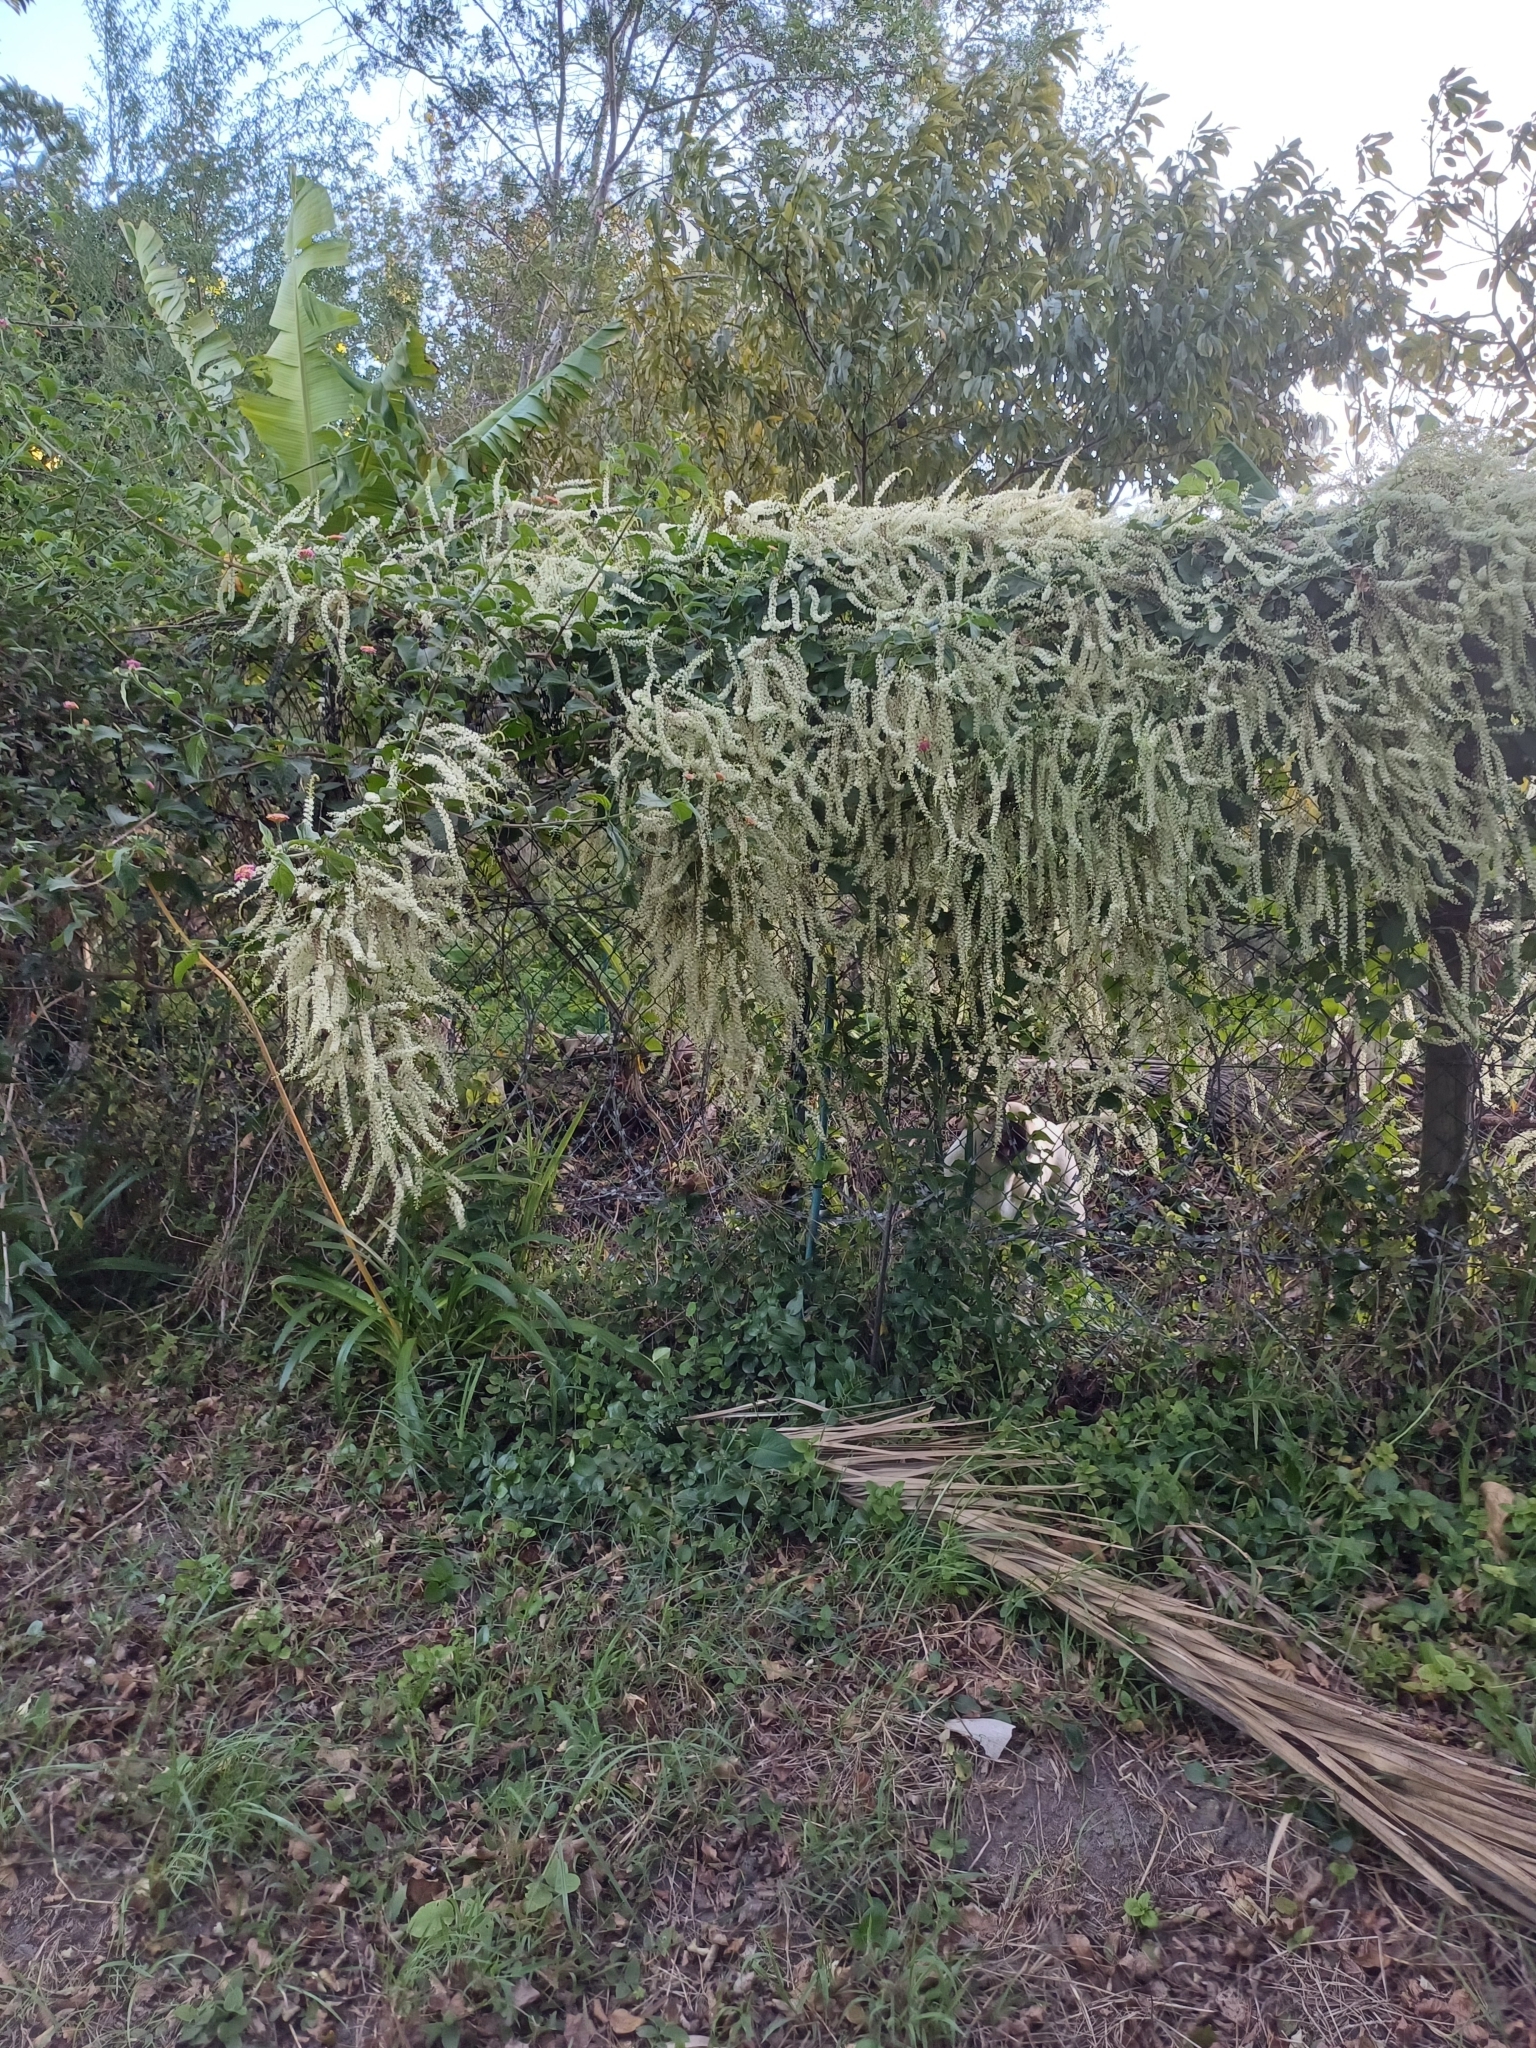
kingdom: Plantae
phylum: Tracheophyta
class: Magnoliopsida
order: Caryophyllales
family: Basellaceae
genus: Anredera
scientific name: Anredera cordifolia
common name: Heartleaf madeiravine
